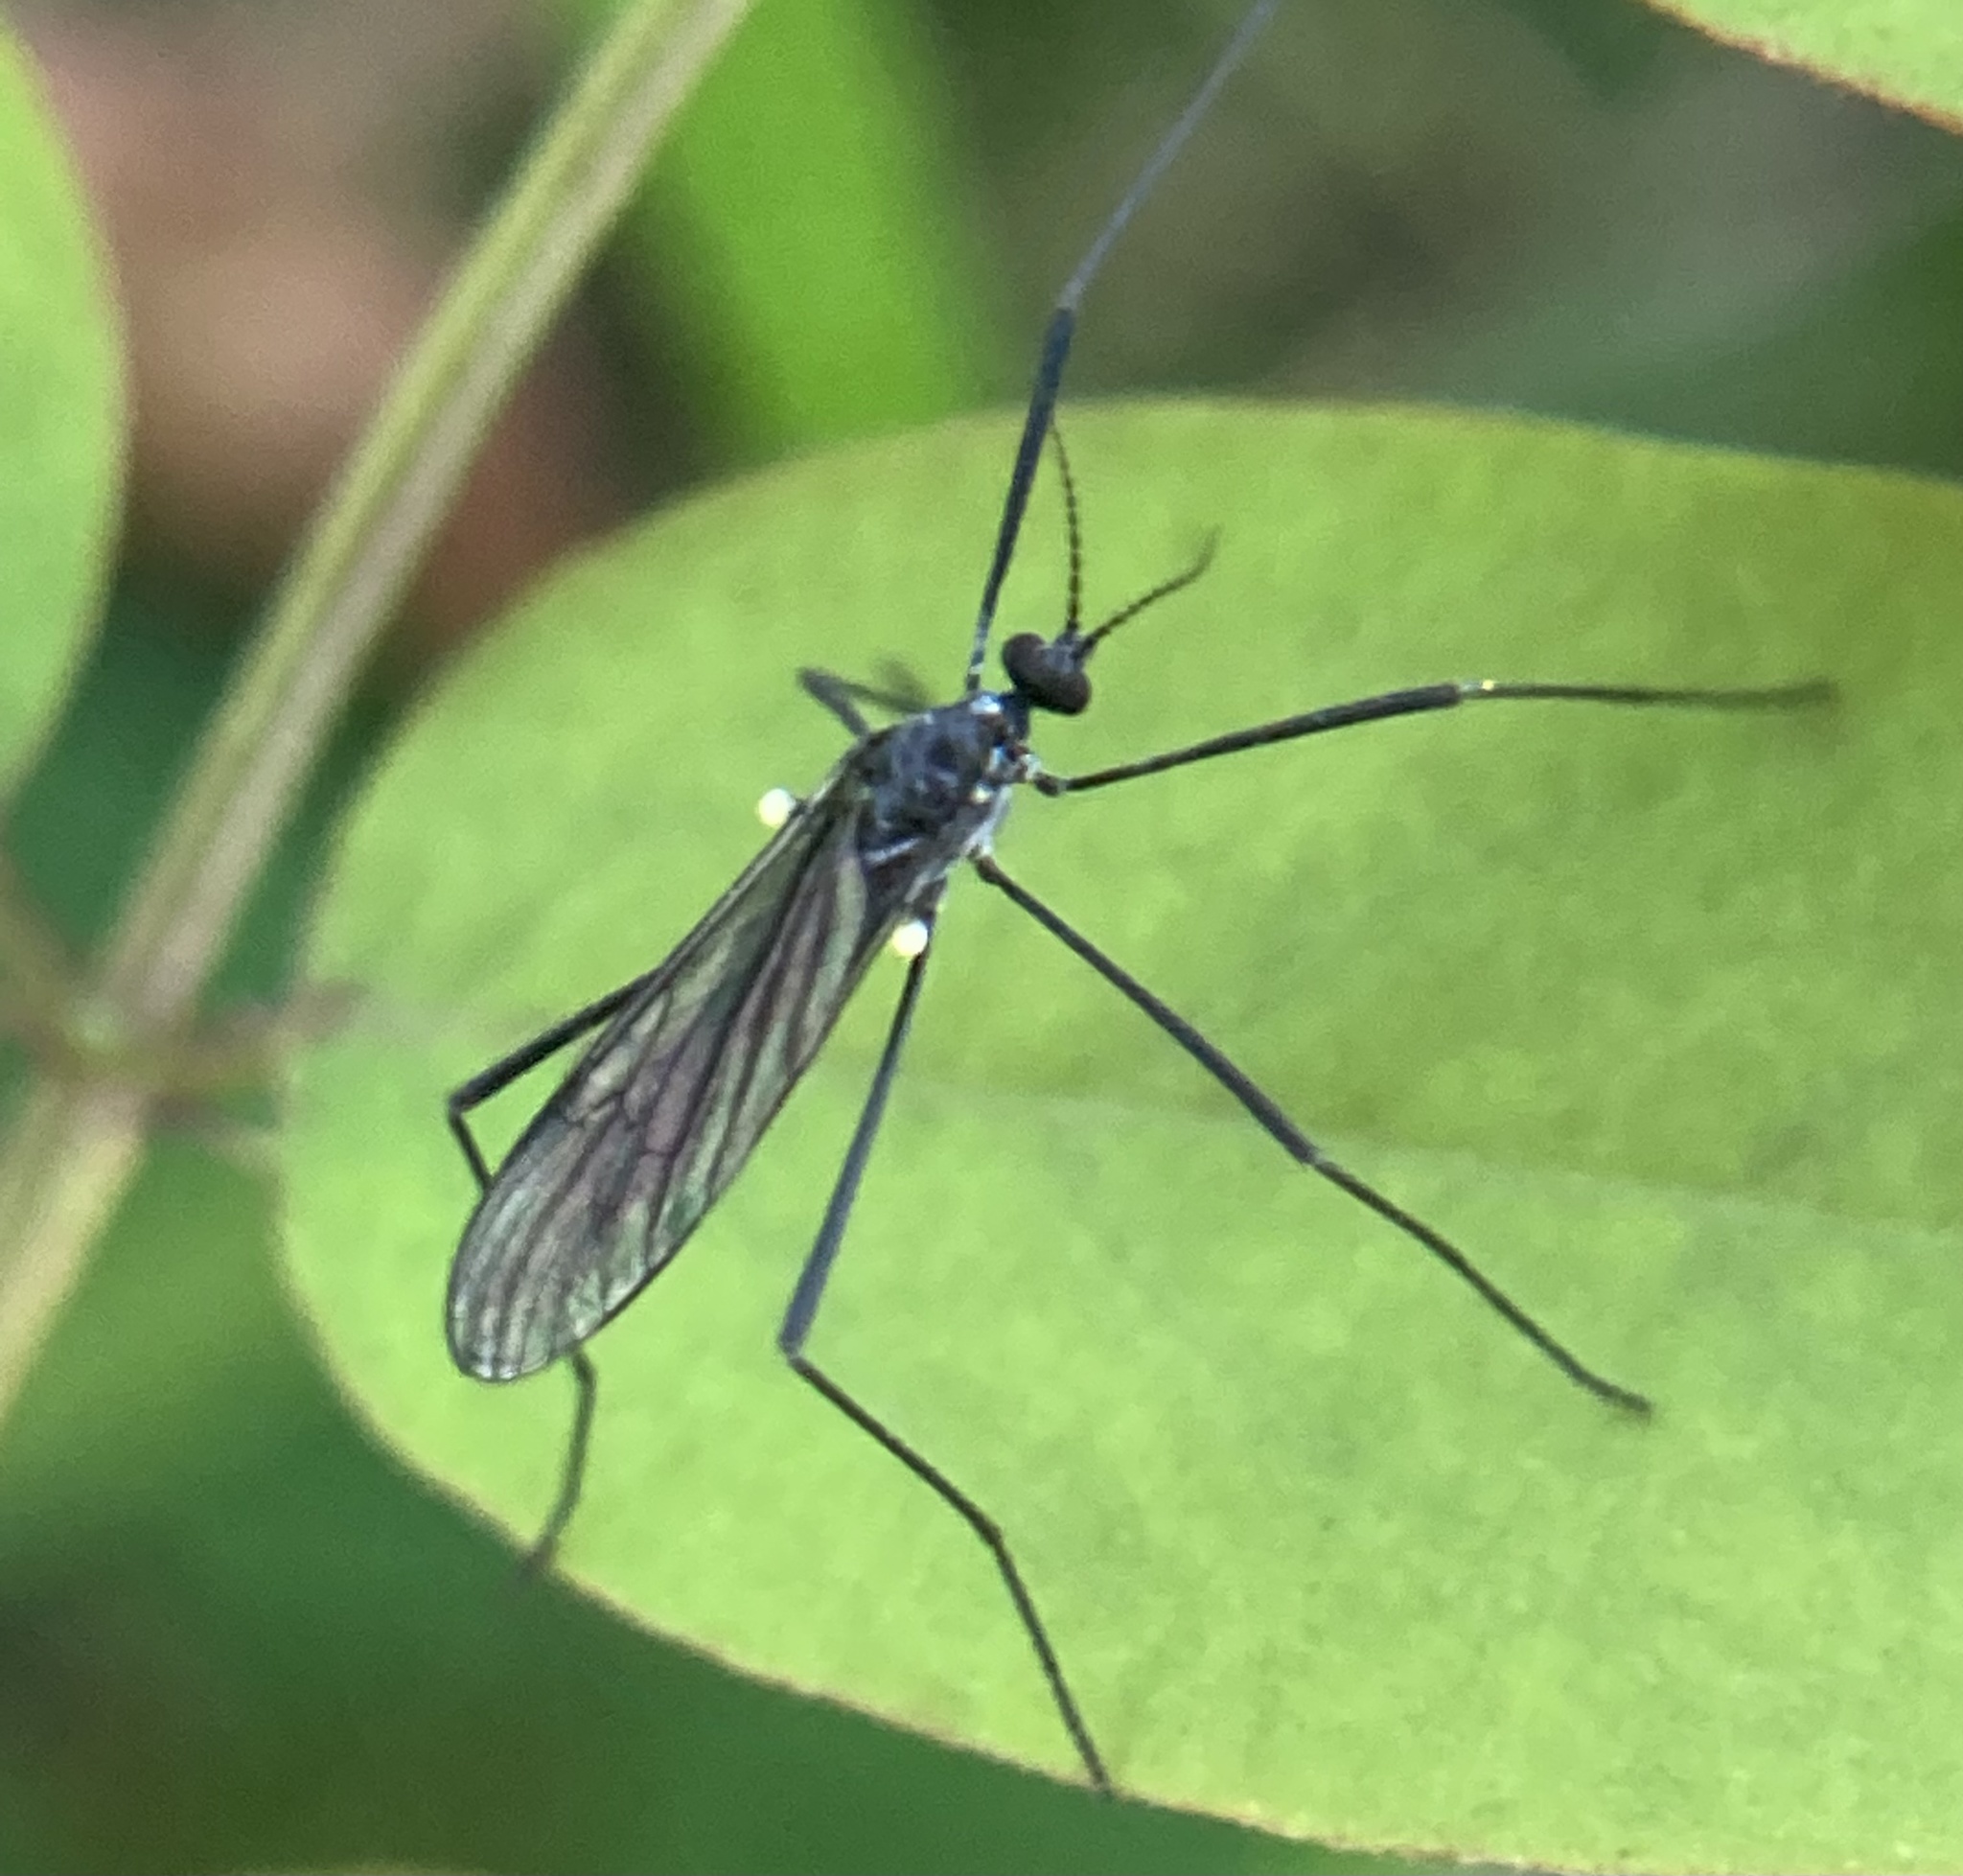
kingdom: Animalia
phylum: Arthropoda
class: Insecta
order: Diptera
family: Limoniidae
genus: Gnophomyia
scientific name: Gnophomyia tristissima
